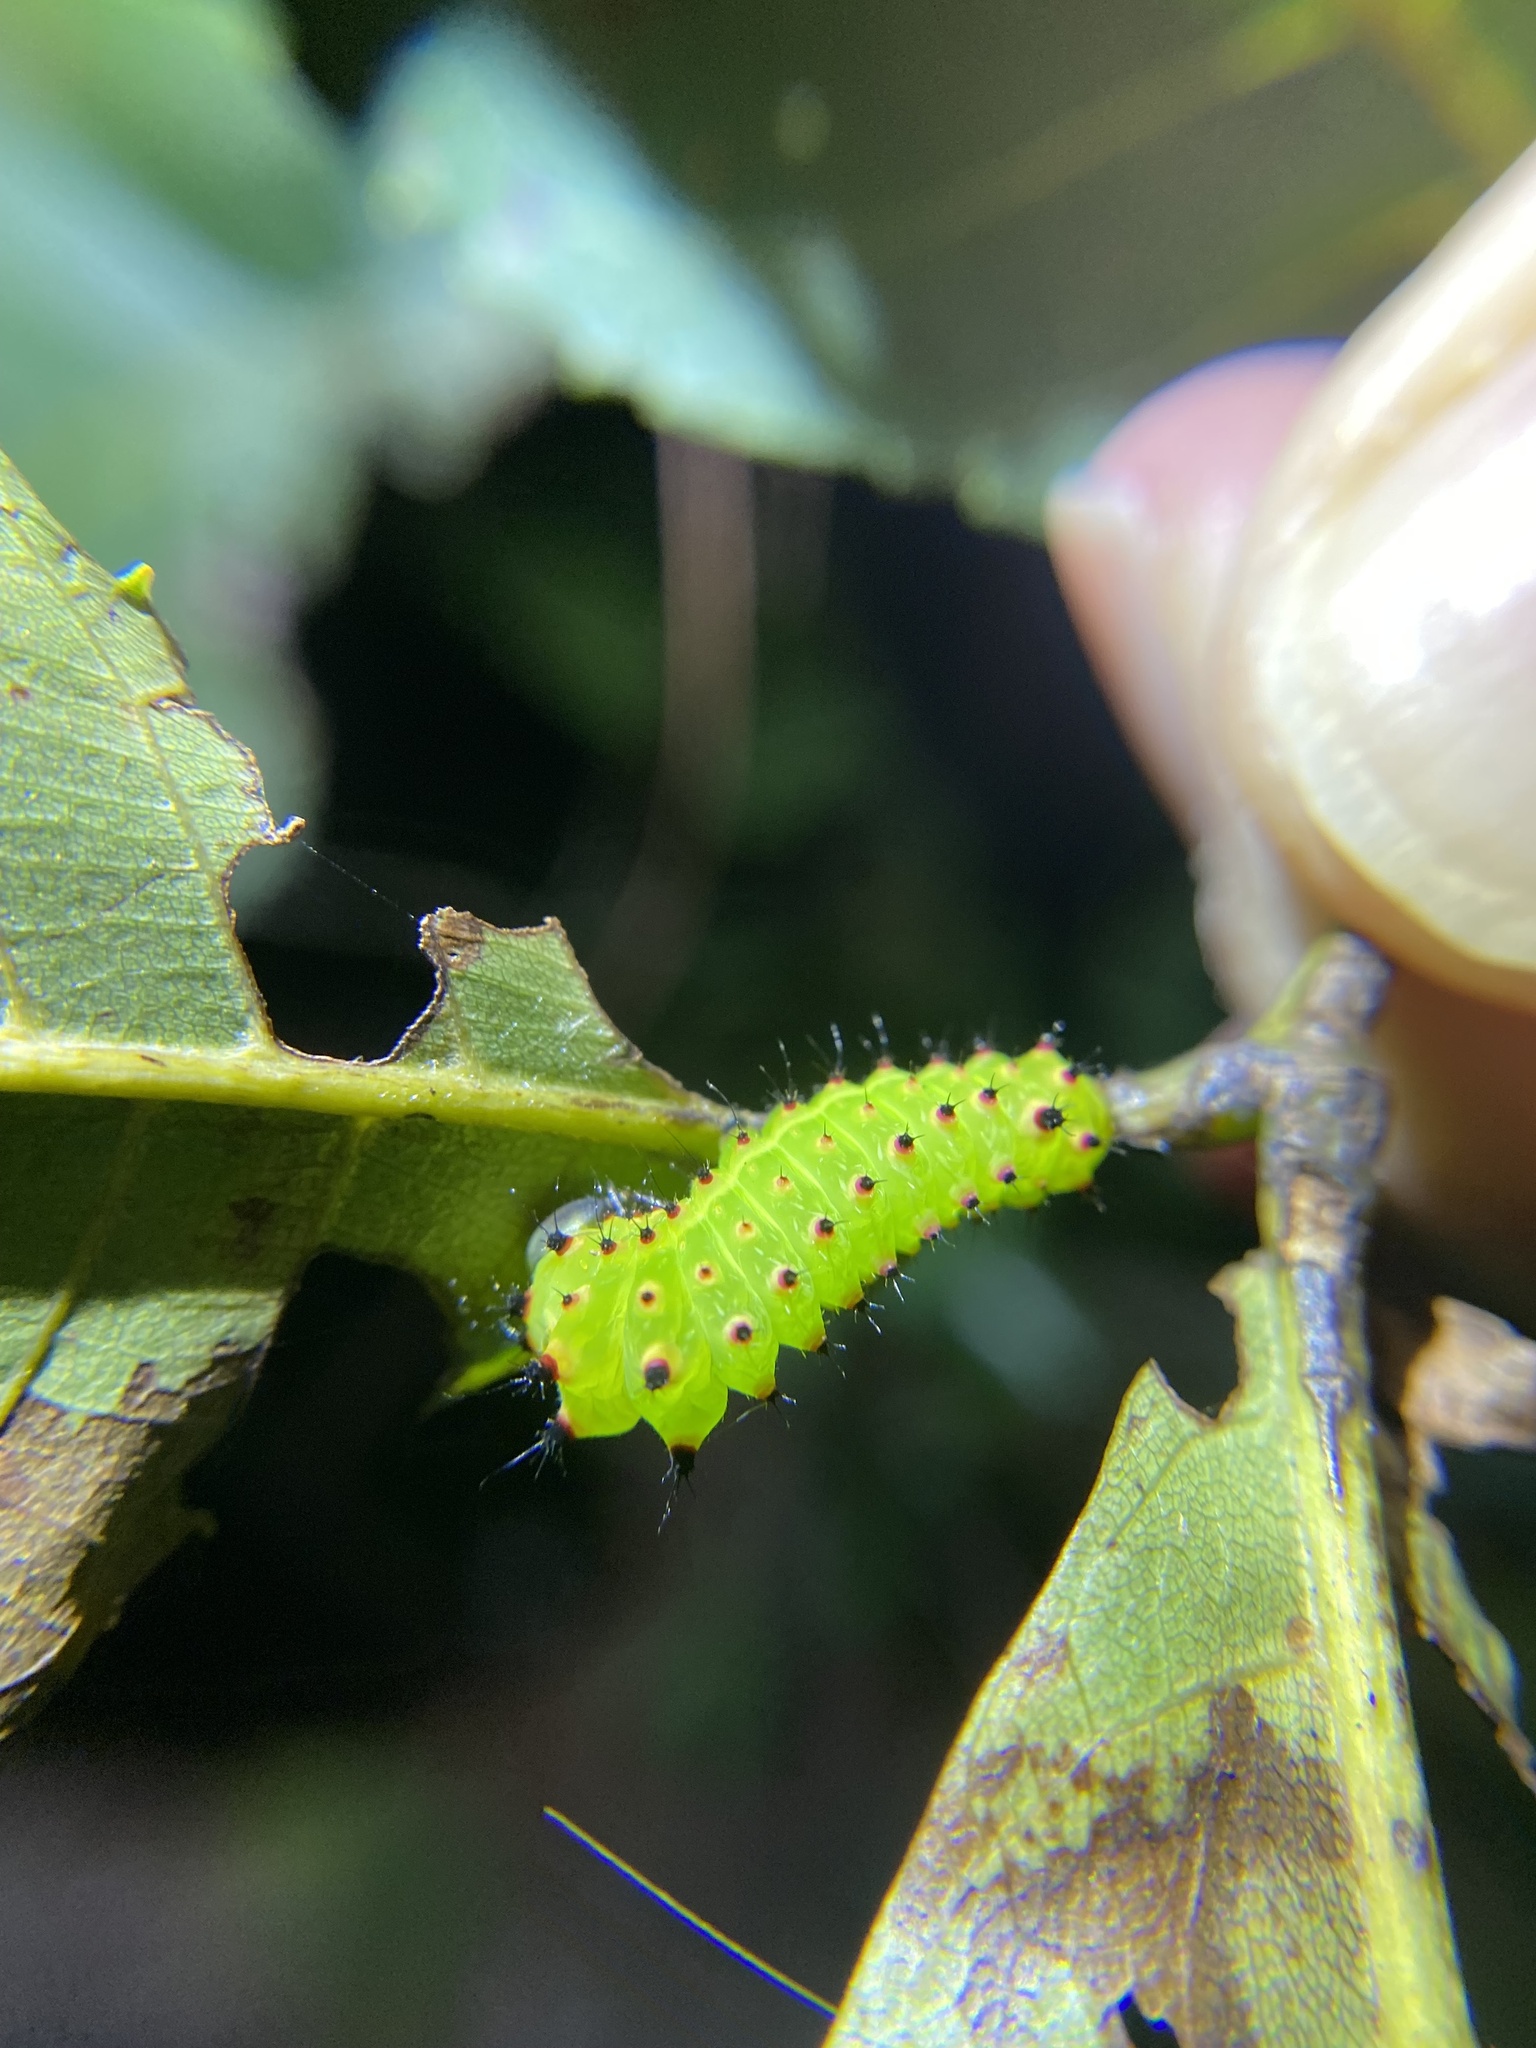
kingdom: Animalia
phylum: Arthropoda
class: Insecta
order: Lepidoptera
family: Saturniidae
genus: Actias
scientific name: Actias luna
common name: Luna moth
